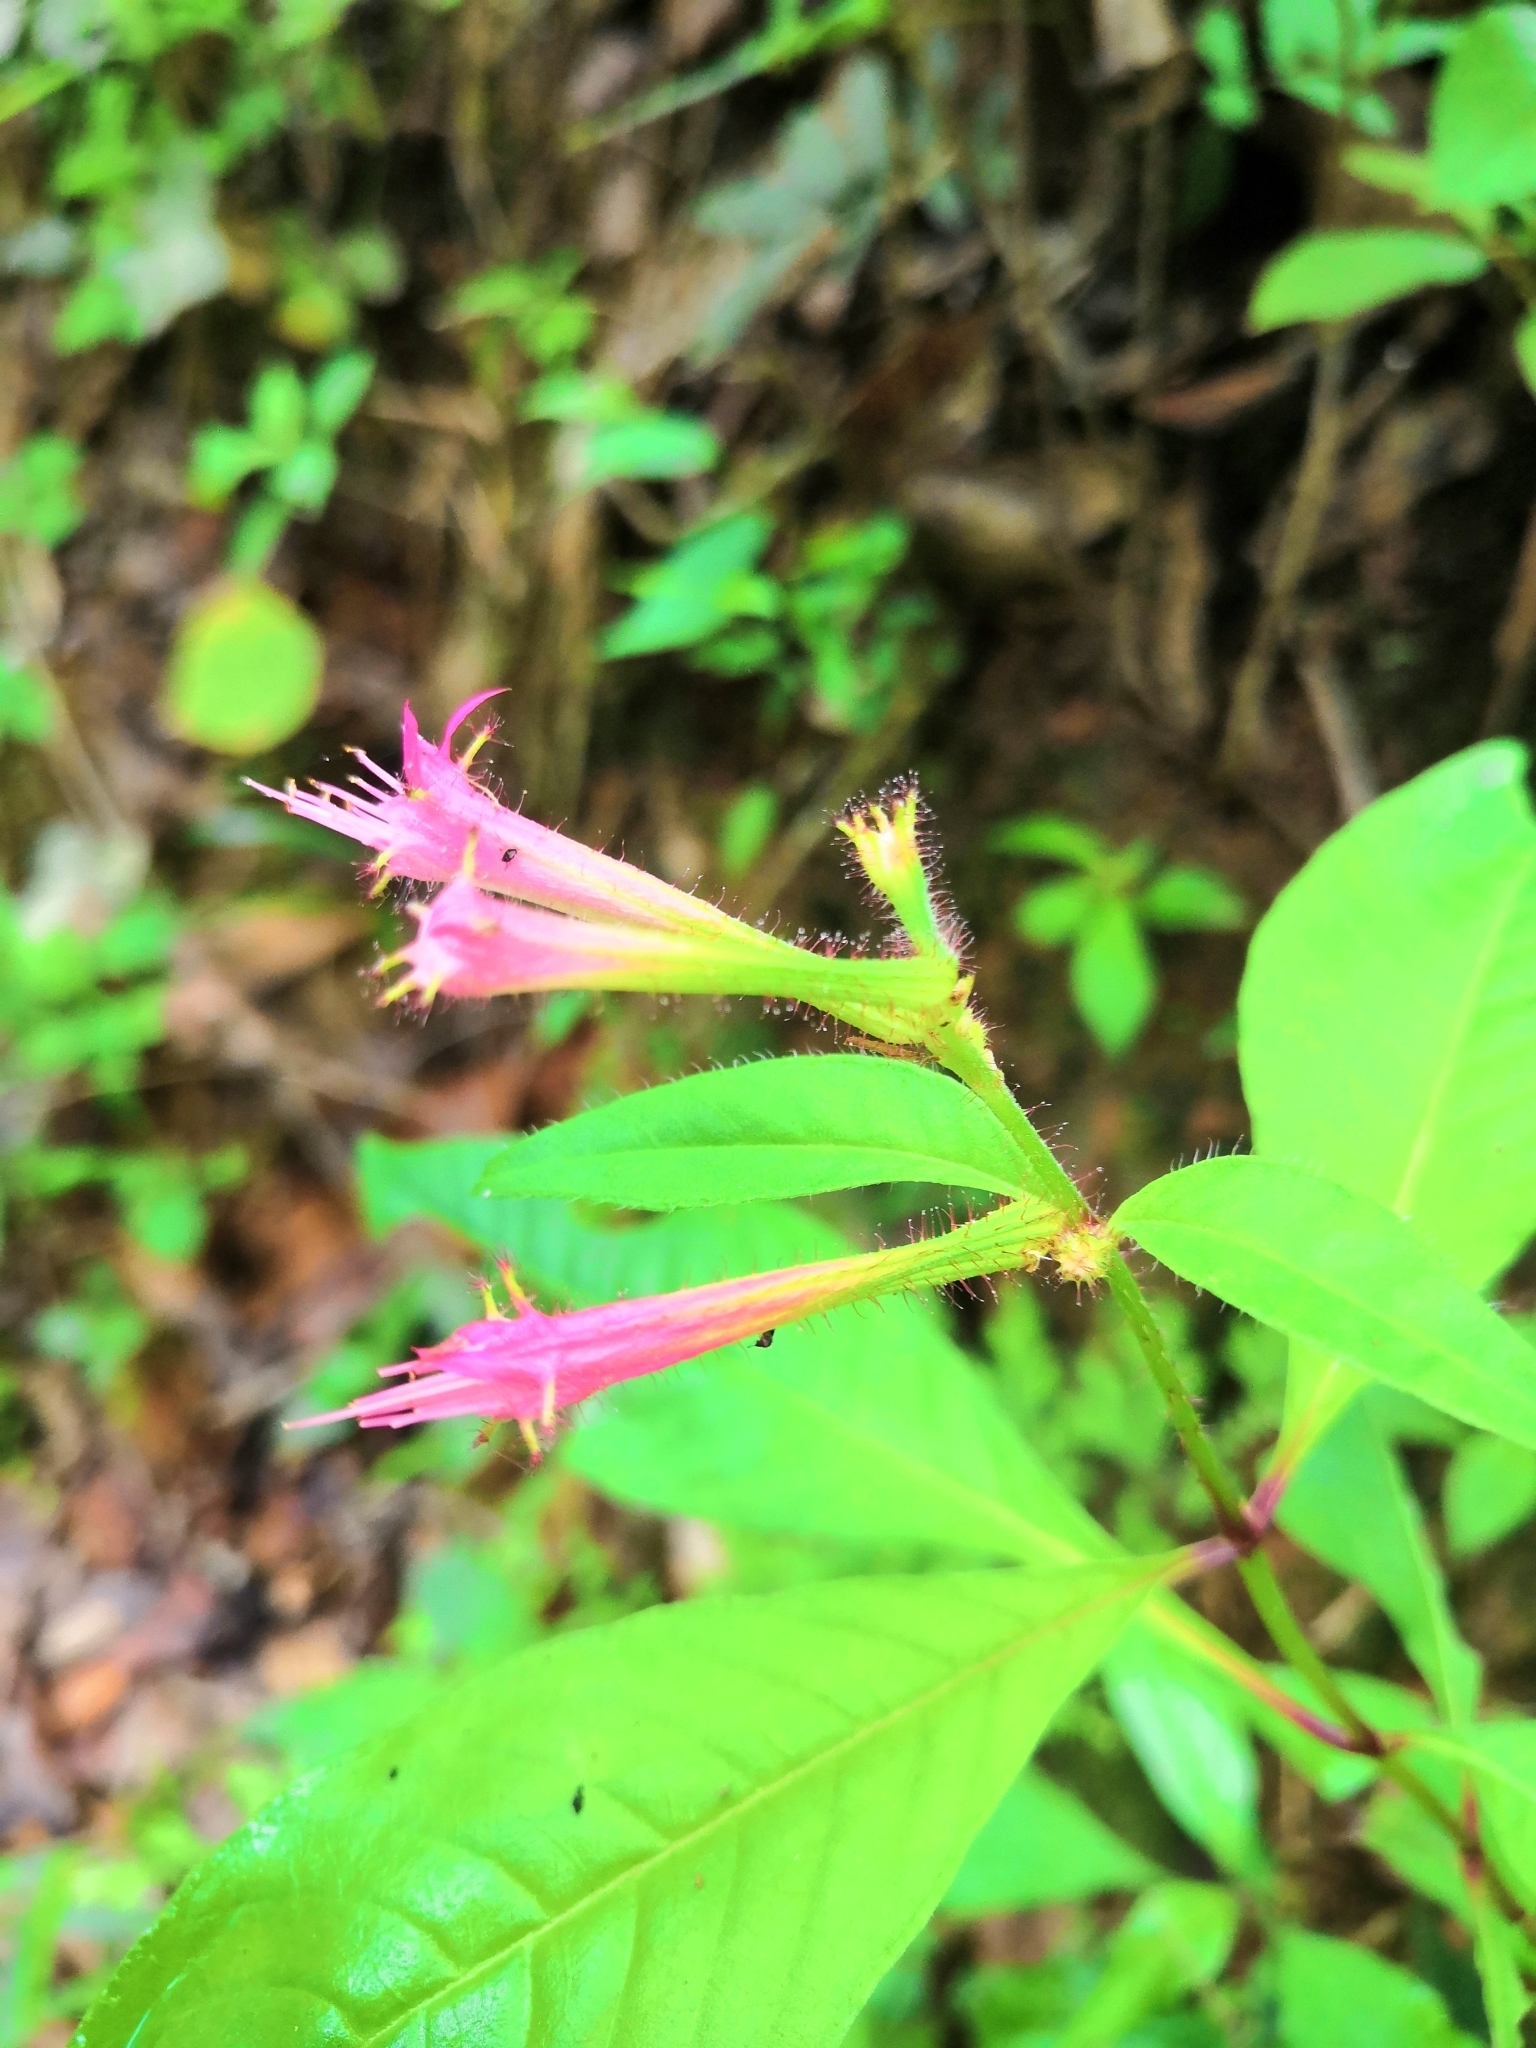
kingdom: Plantae
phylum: Tracheophyta
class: Magnoliopsida
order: Myrtales
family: Lythraceae
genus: Cuphea
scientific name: Cuphea appendiculata
